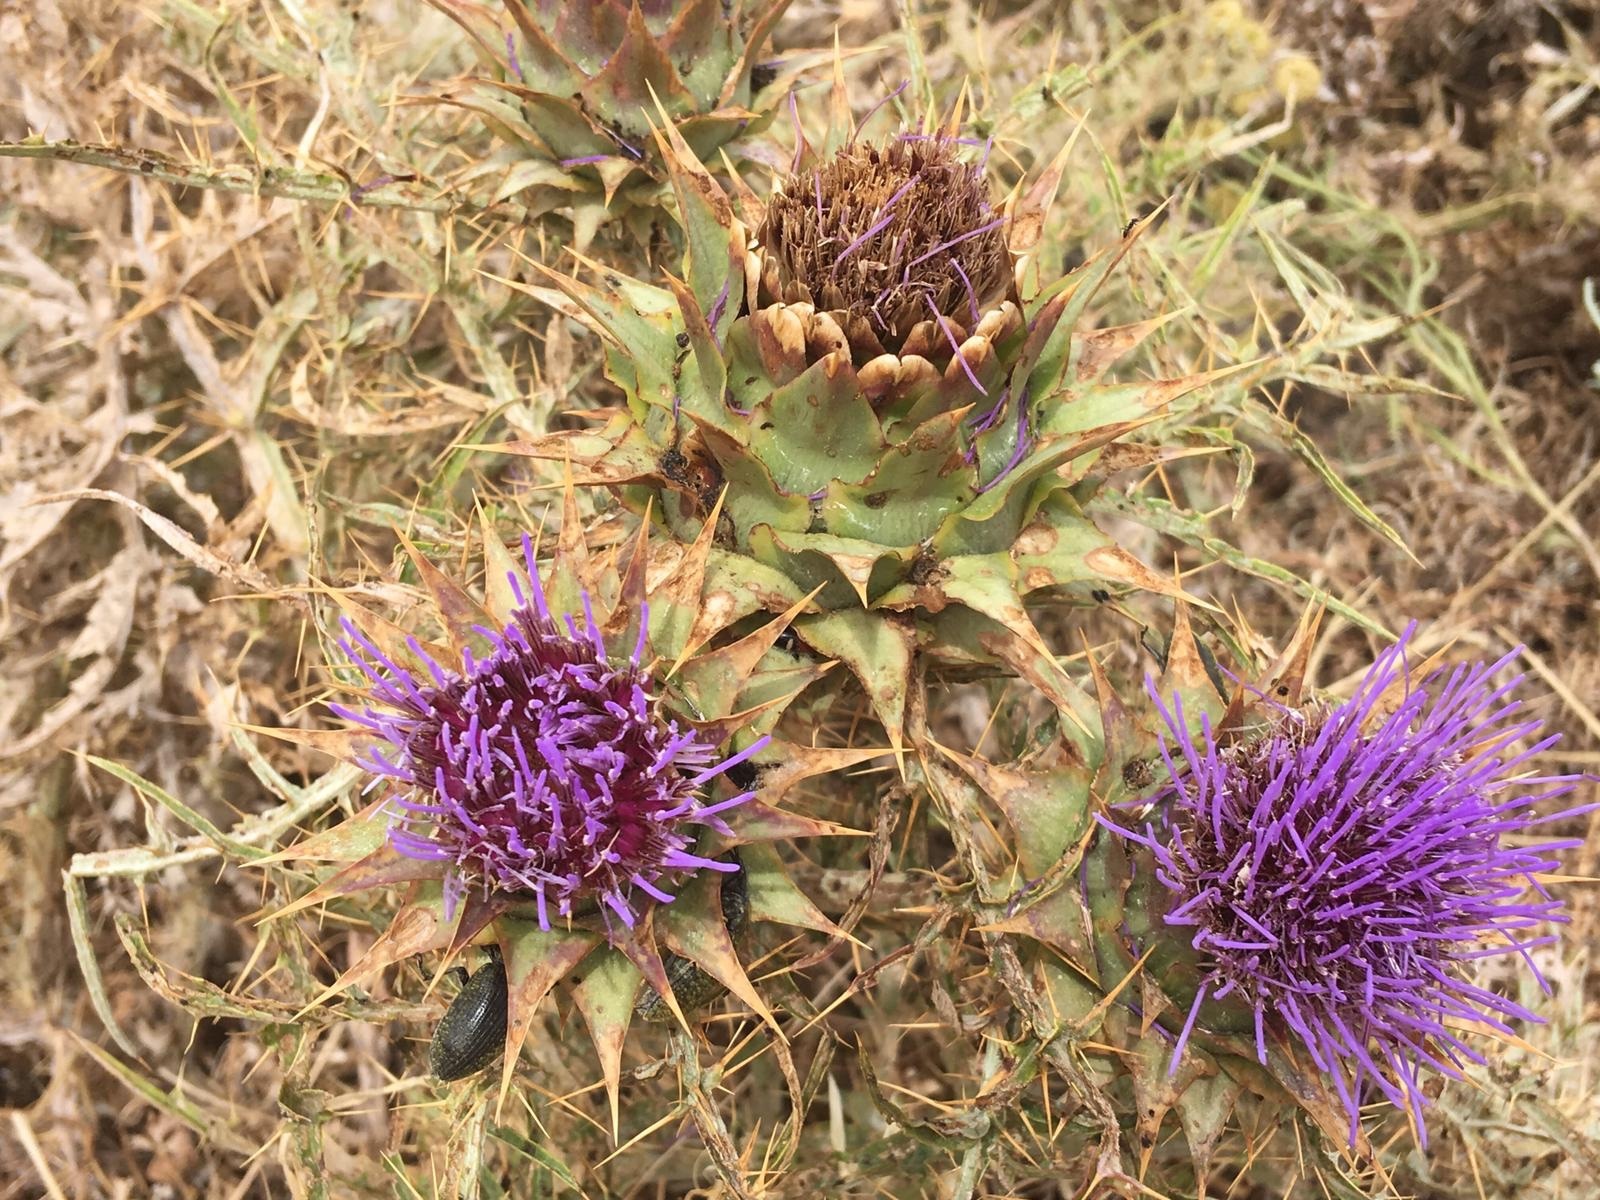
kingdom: Plantae
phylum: Tracheophyta
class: Magnoliopsida
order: Asterales
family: Asteraceae
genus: Cynara
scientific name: Cynara cardunculus
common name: Globe artichoke
